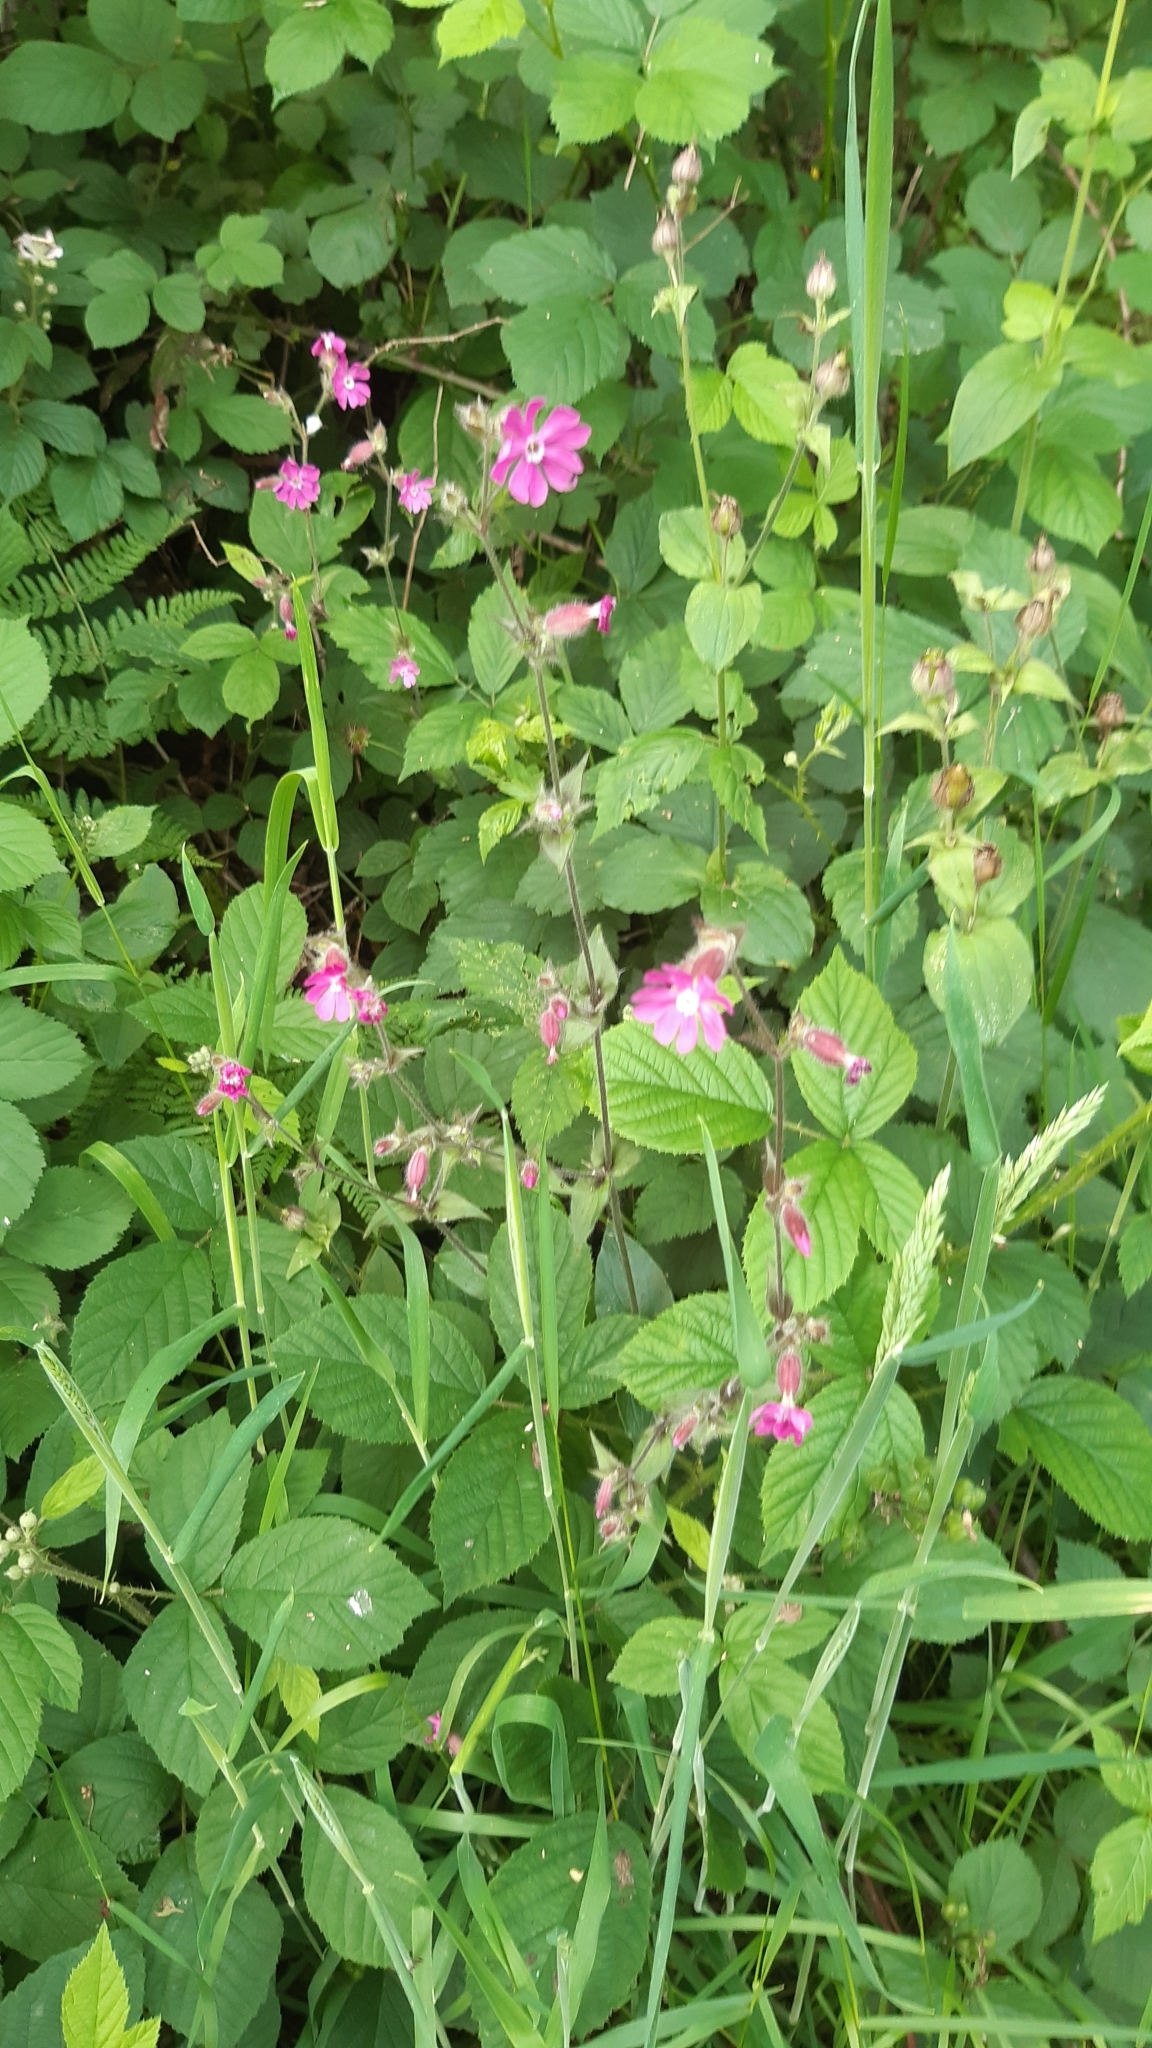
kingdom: Plantae
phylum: Tracheophyta
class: Magnoliopsida
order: Caryophyllales
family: Caryophyllaceae
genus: Silene
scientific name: Silene dioica
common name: Red campion
